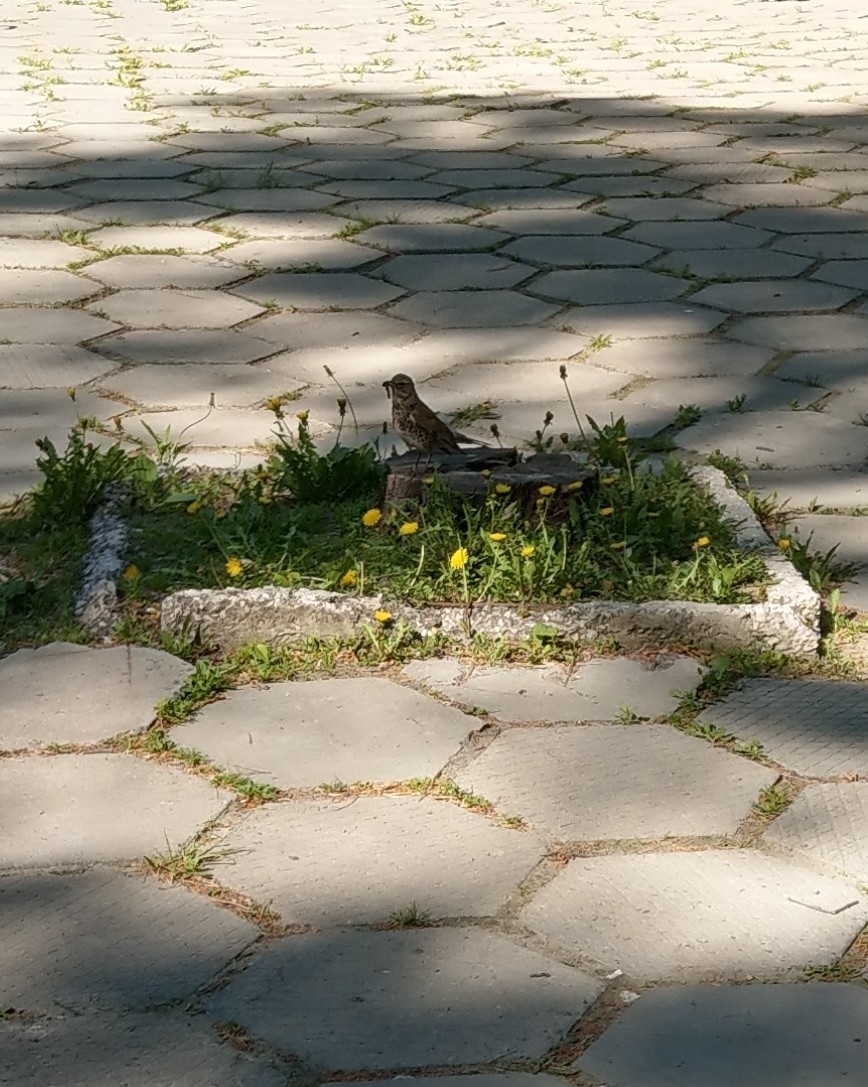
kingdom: Animalia
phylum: Chordata
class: Aves
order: Passeriformes
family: Turdidae
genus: Turdus
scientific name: Turdus pilaris
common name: Fieldfare
